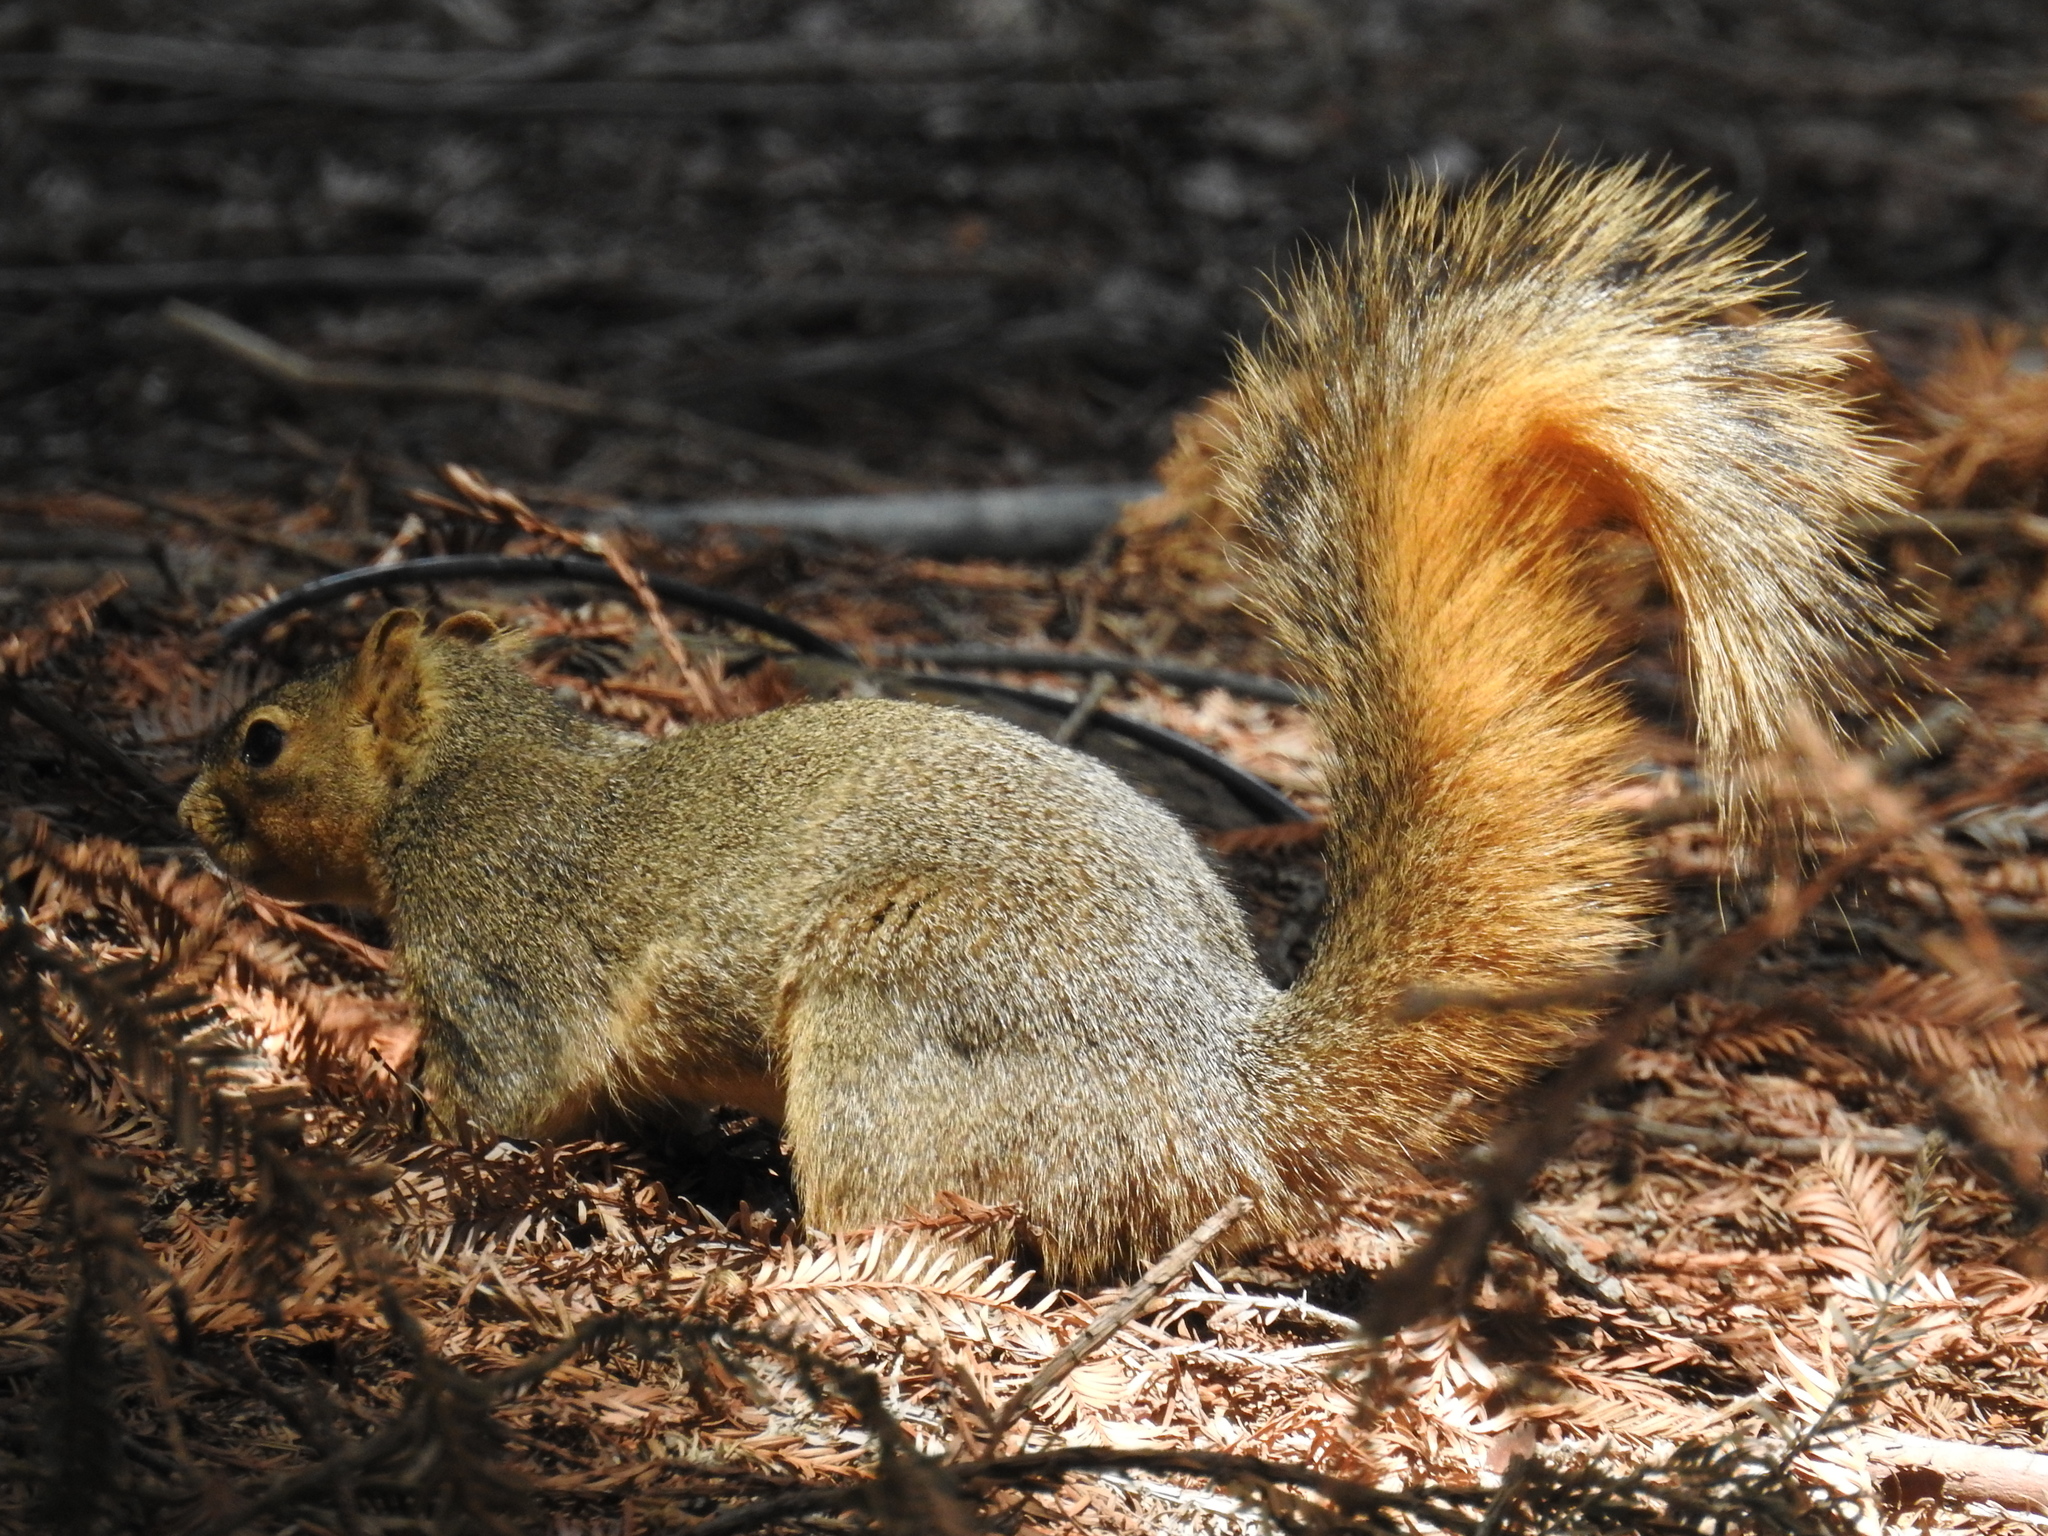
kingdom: Animalia
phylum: Chordata
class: Mammalia
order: Rodentia
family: Sciuridae
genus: Sciurus
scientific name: Sciurus niger
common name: Fox squirrel
